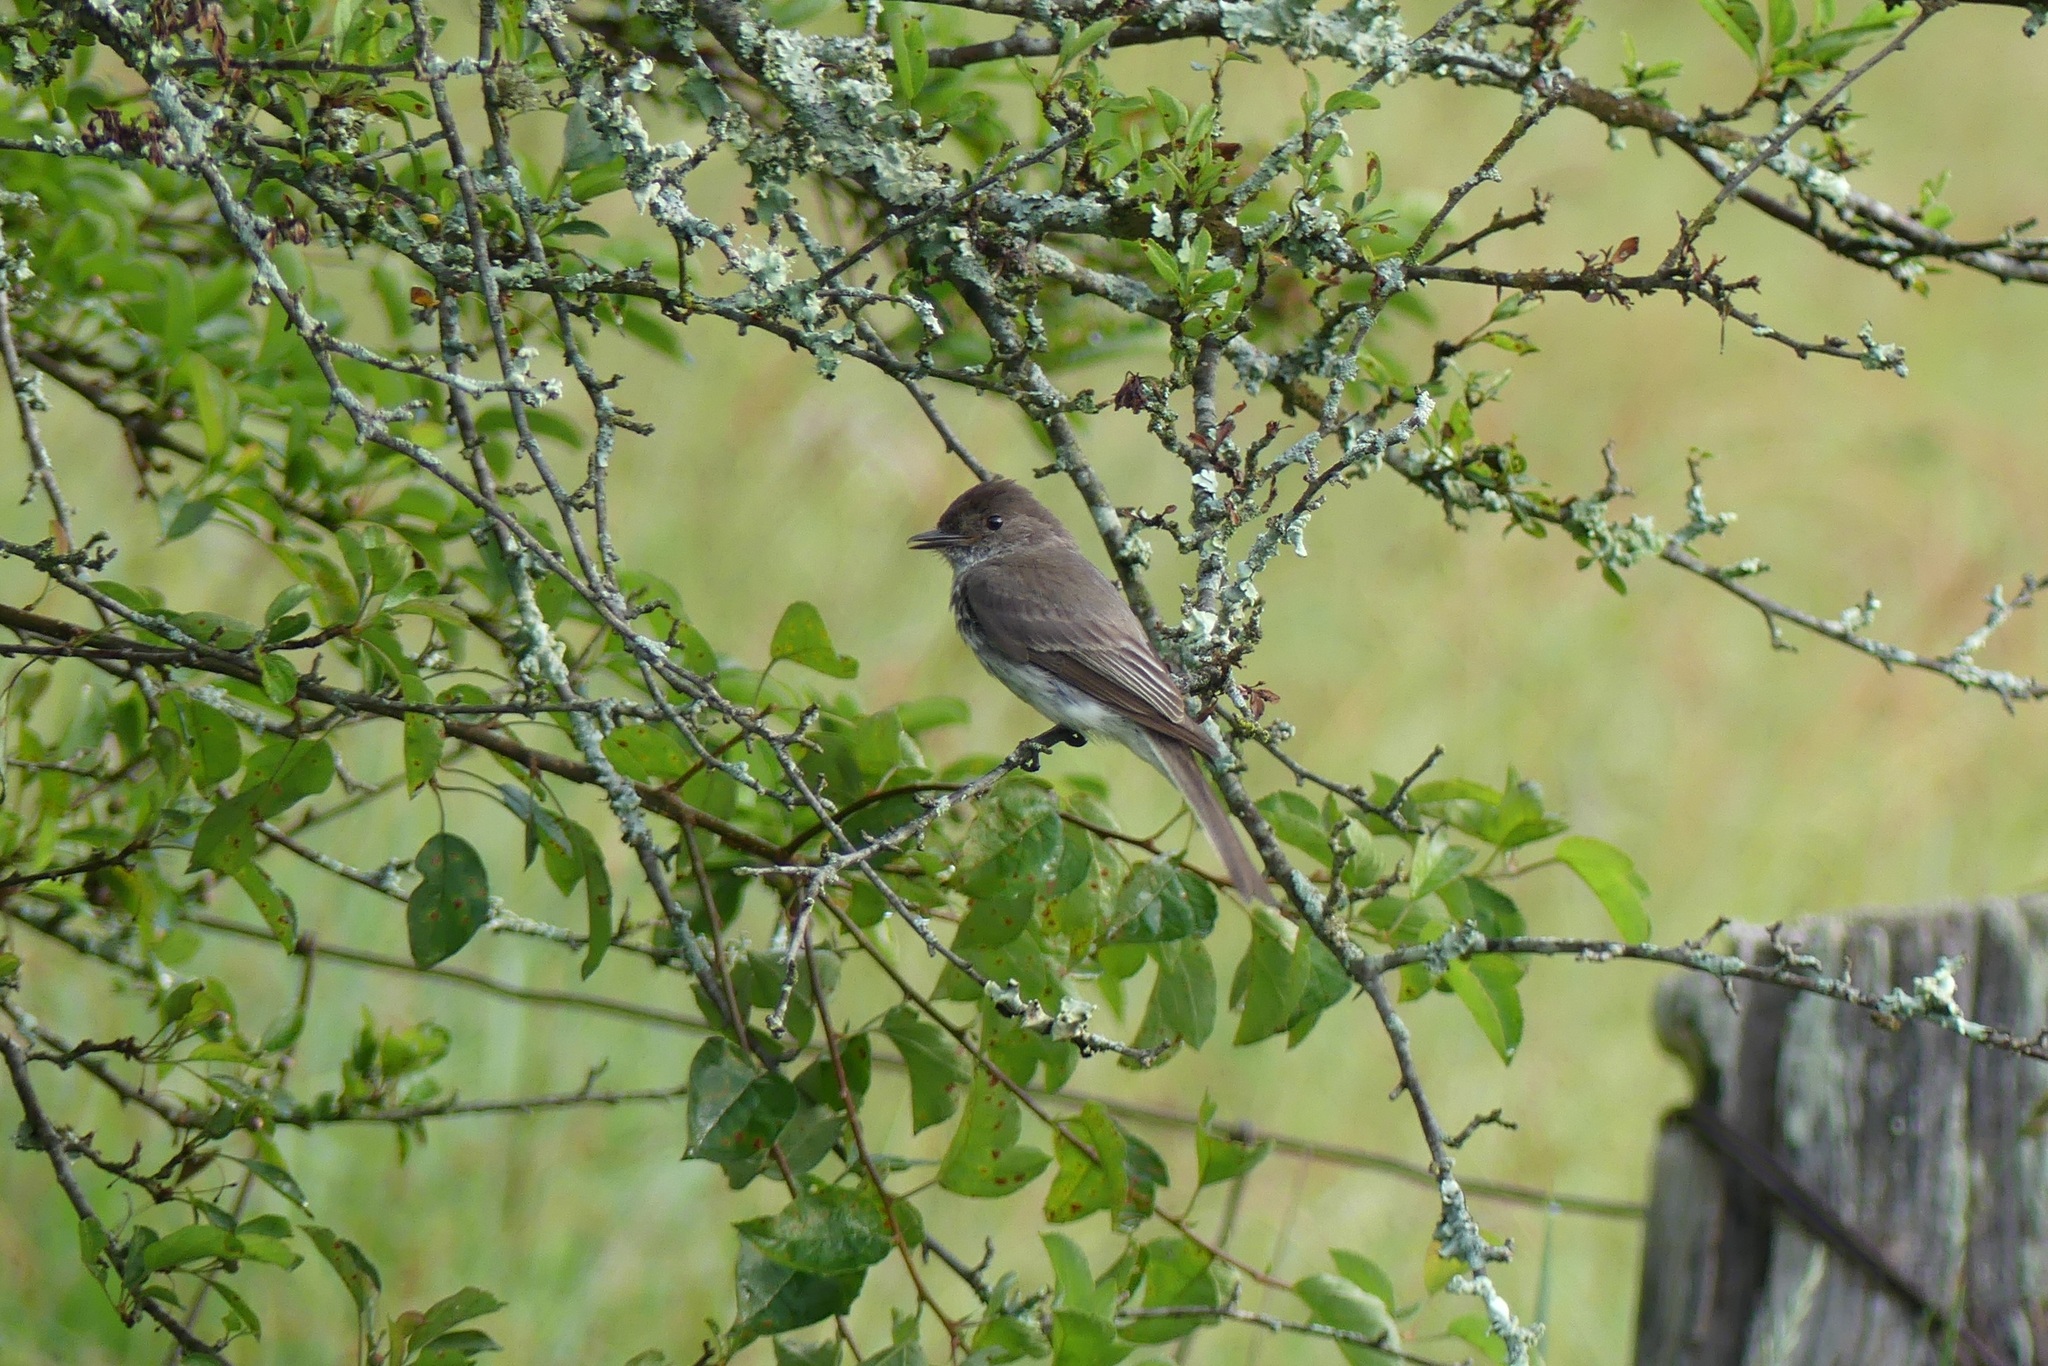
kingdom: Animalia
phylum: Chordata
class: Aves
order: Passeriformes
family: Tyrannidae
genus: Sayornis
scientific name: Sayornis phoebe
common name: Eastern phoebe
